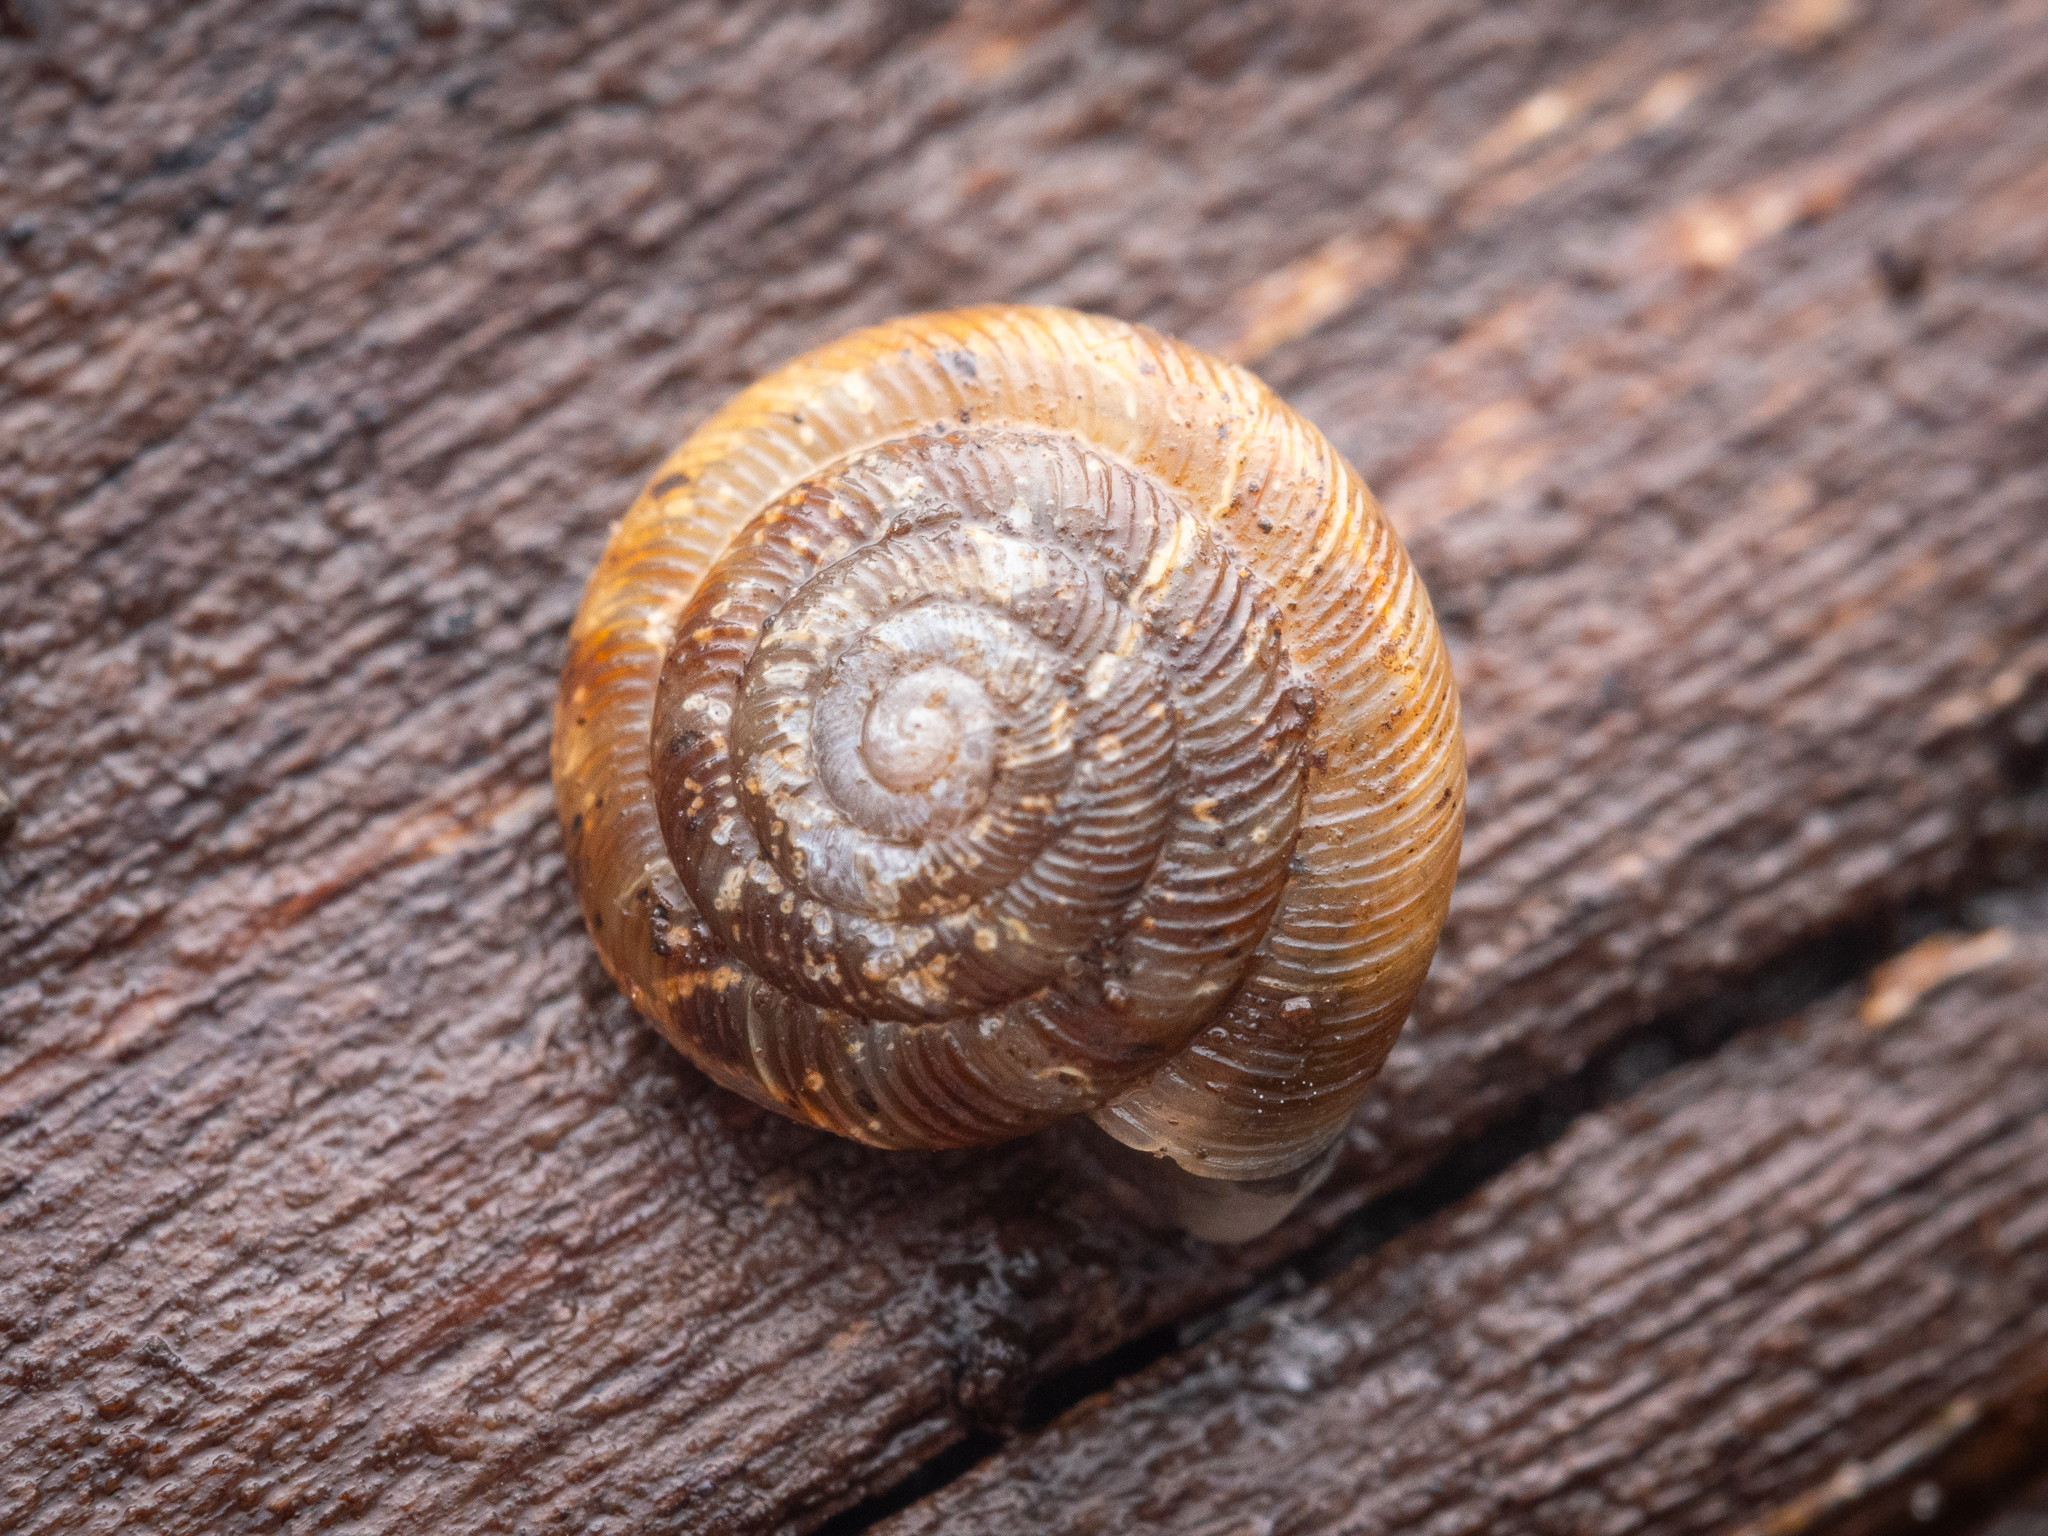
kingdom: Animalia
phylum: Mollusca
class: Gastropoda
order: Stylommatophora
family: Discidae
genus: Discus
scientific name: Discus rotundatus
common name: Rounded snail
